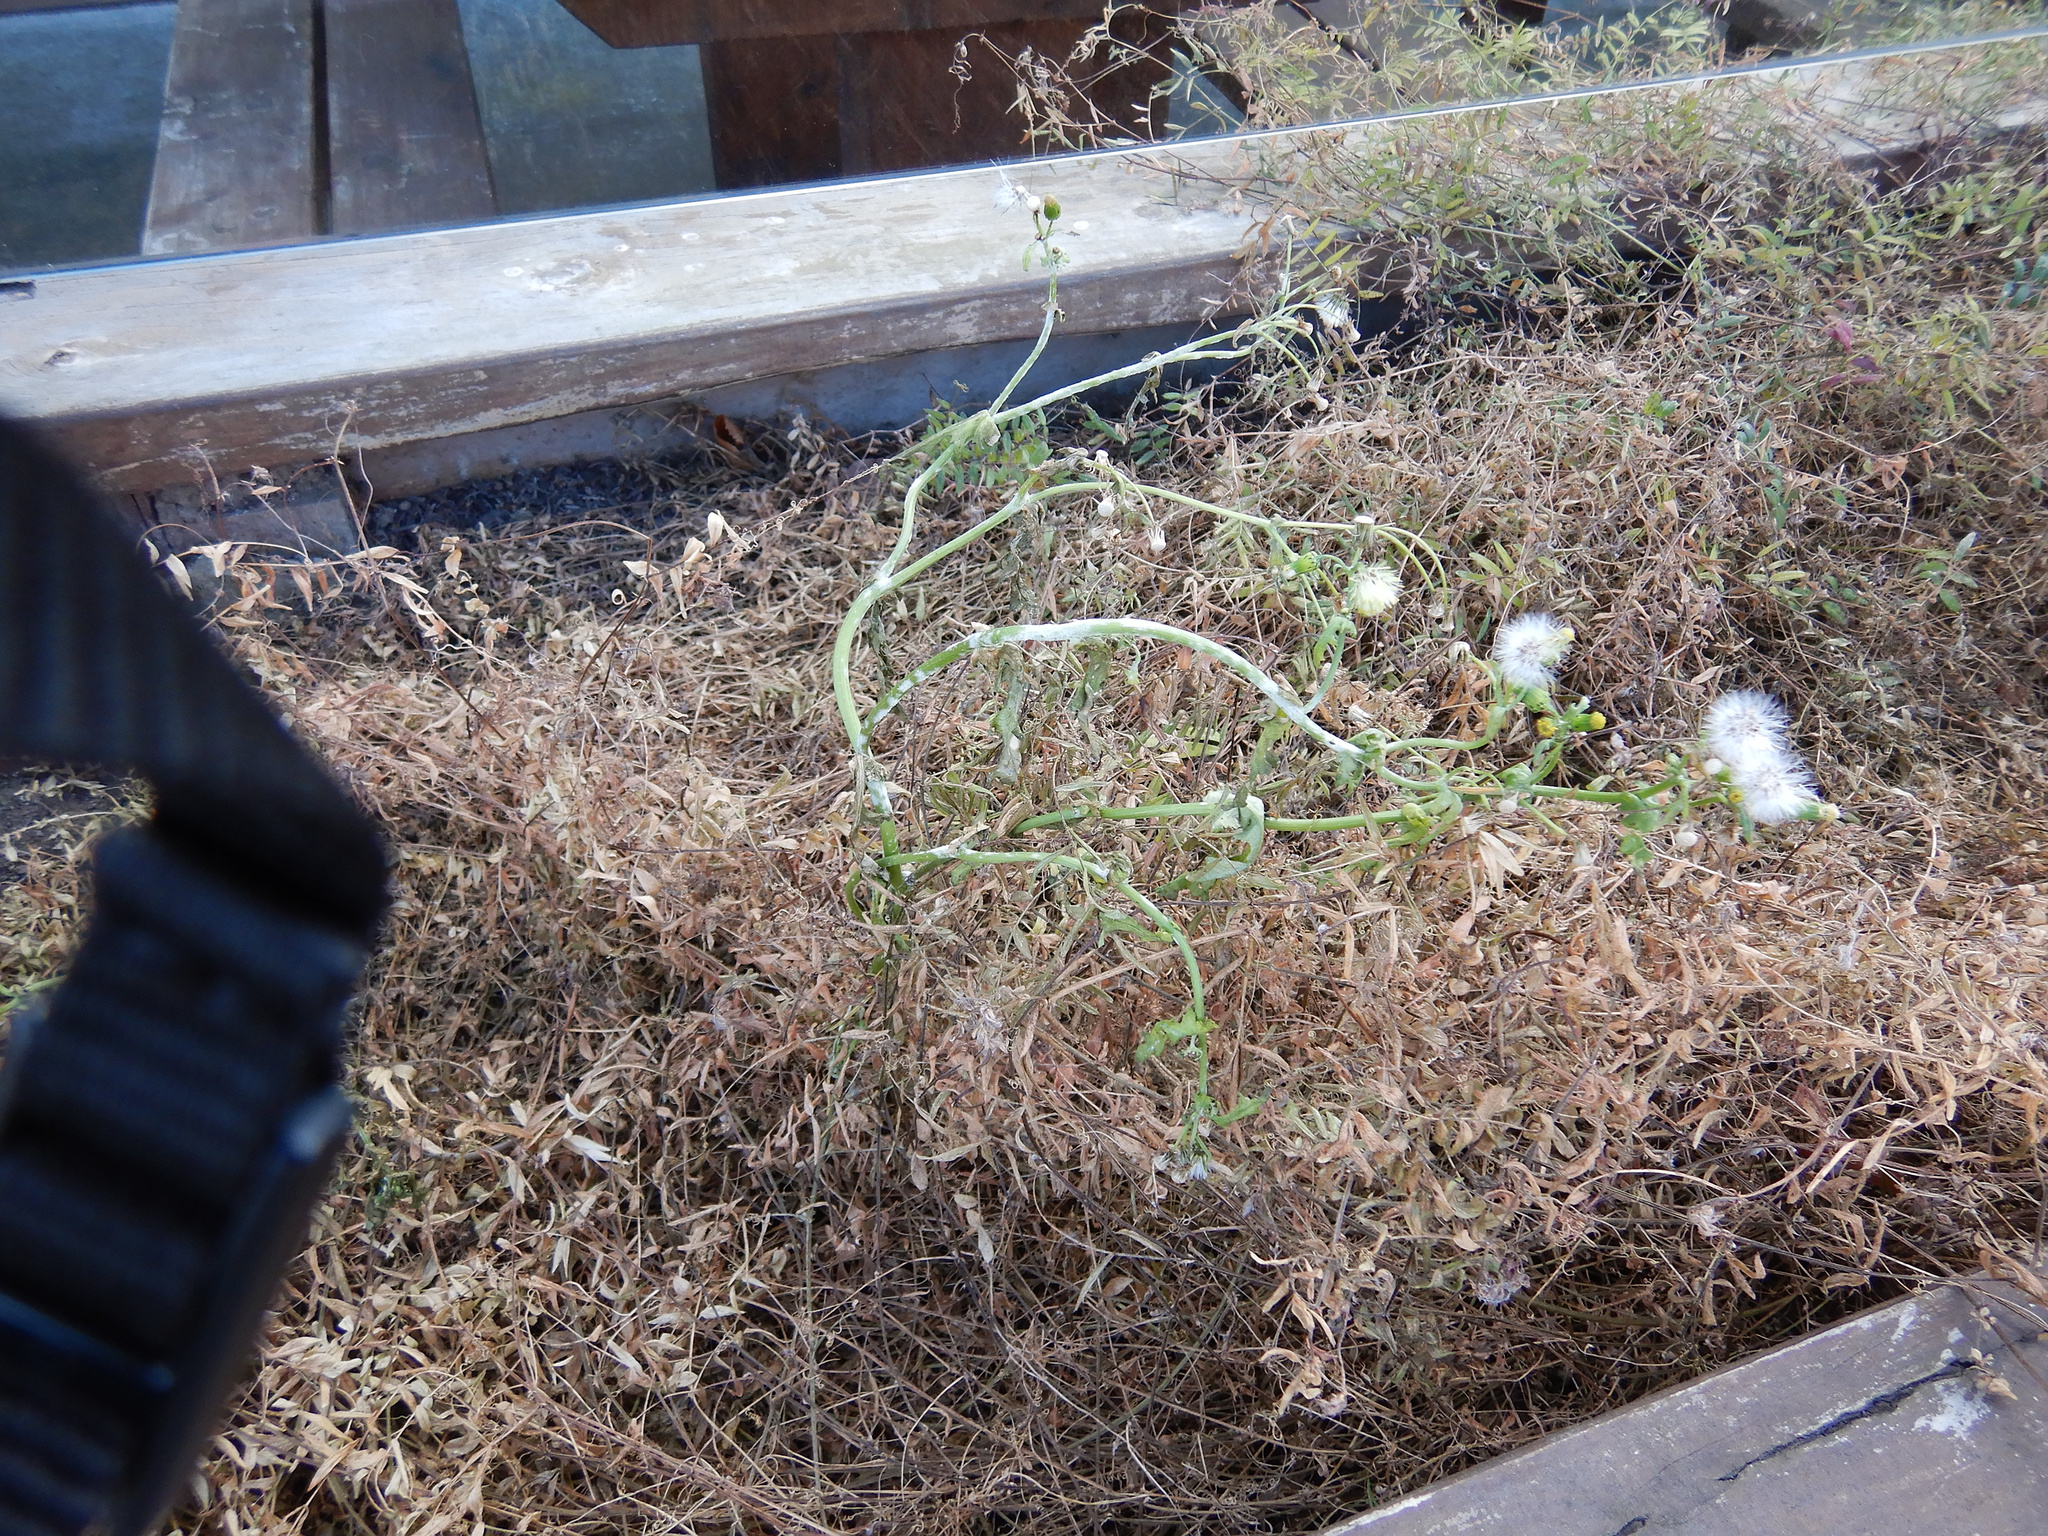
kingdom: Plantae
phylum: Tracheophyta
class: Magnoliopsida
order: Asterales
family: Asteraceae
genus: Senecio
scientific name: Senecio vulgaris
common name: Old-man-in-the-spring
